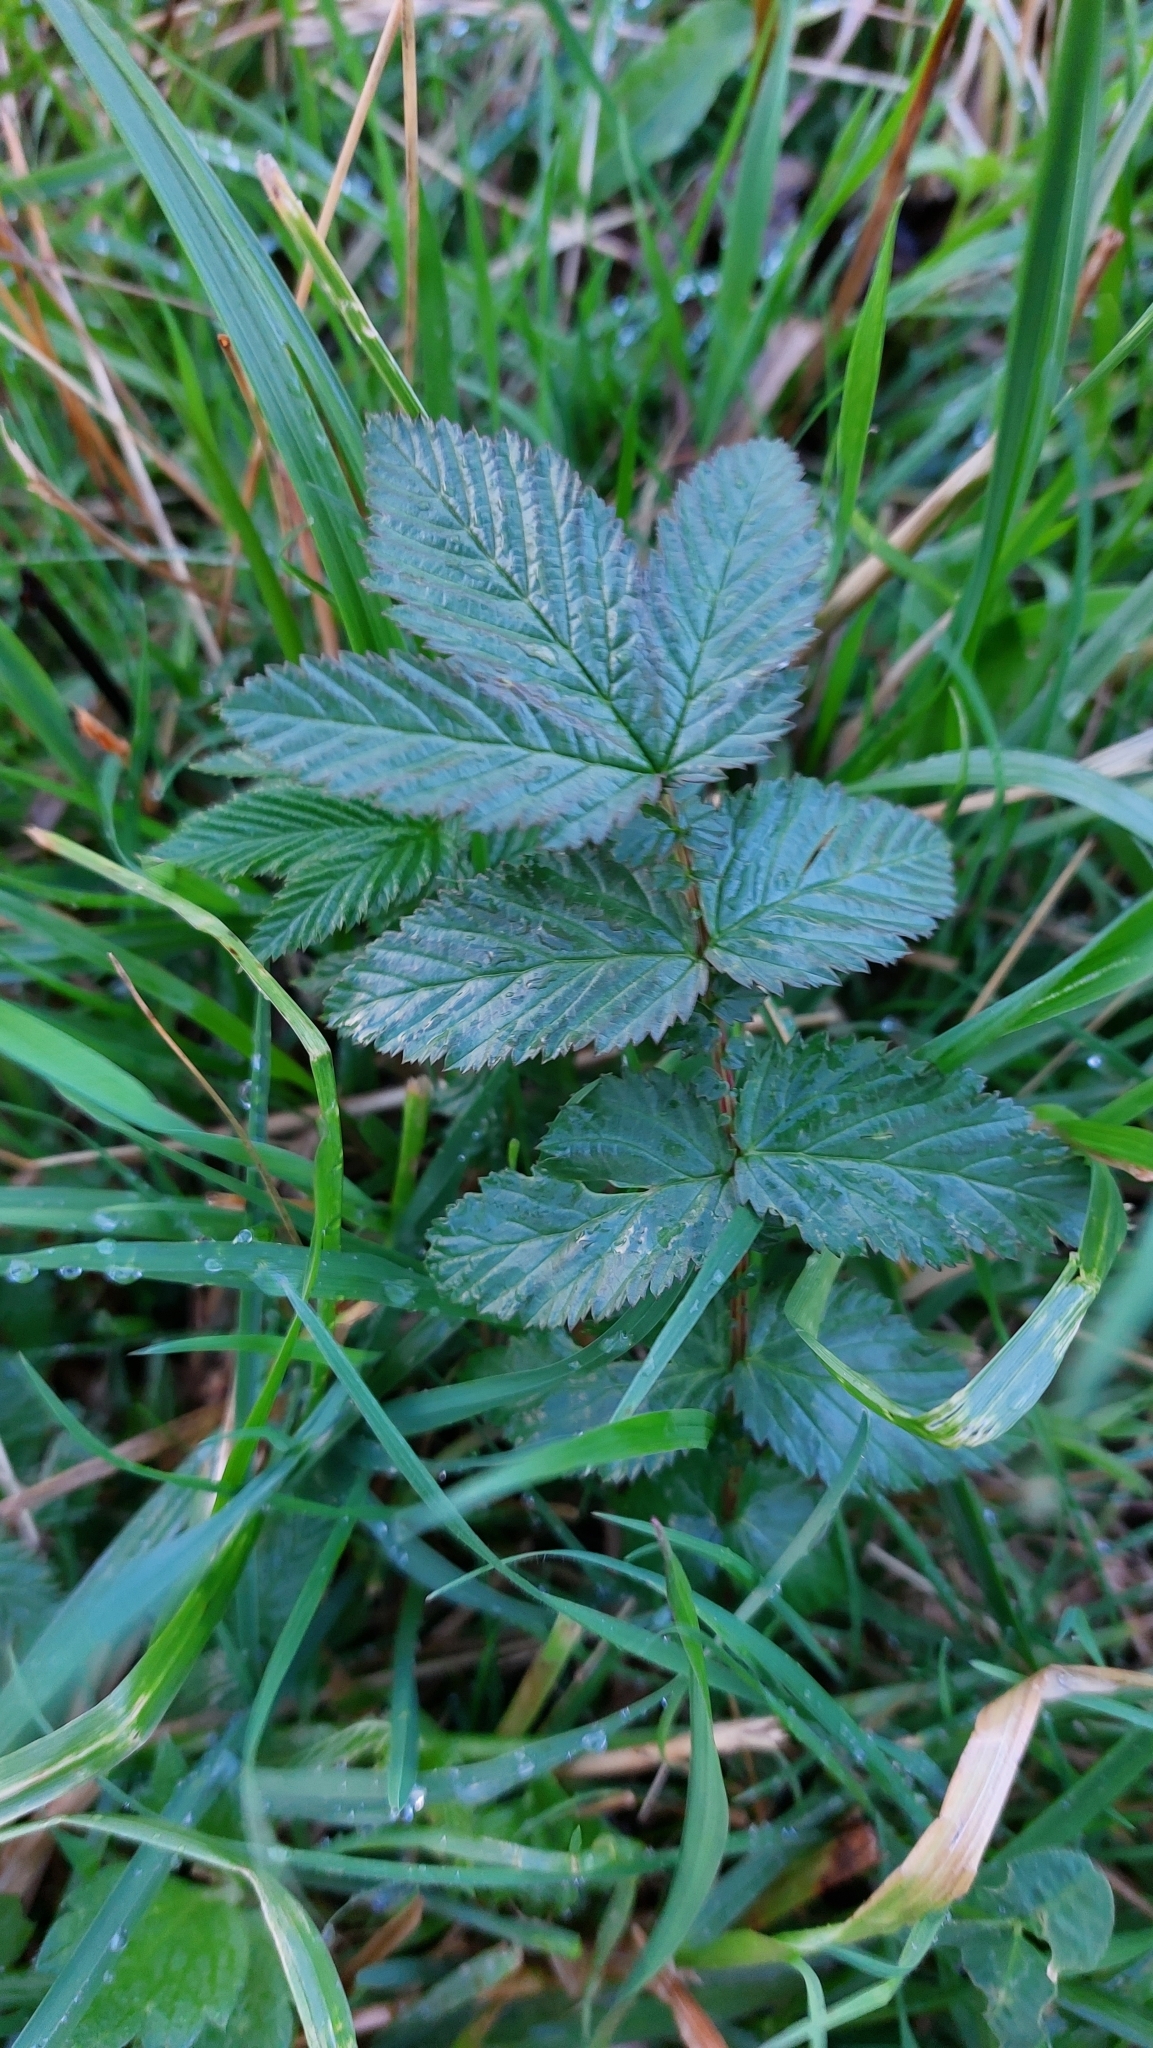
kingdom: Plantae
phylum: Tracheophyta
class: Magnoliopsida
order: Rosales
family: Rosaceae
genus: Filipendula
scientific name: Filipendula ulmaria
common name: Meadowsweet
